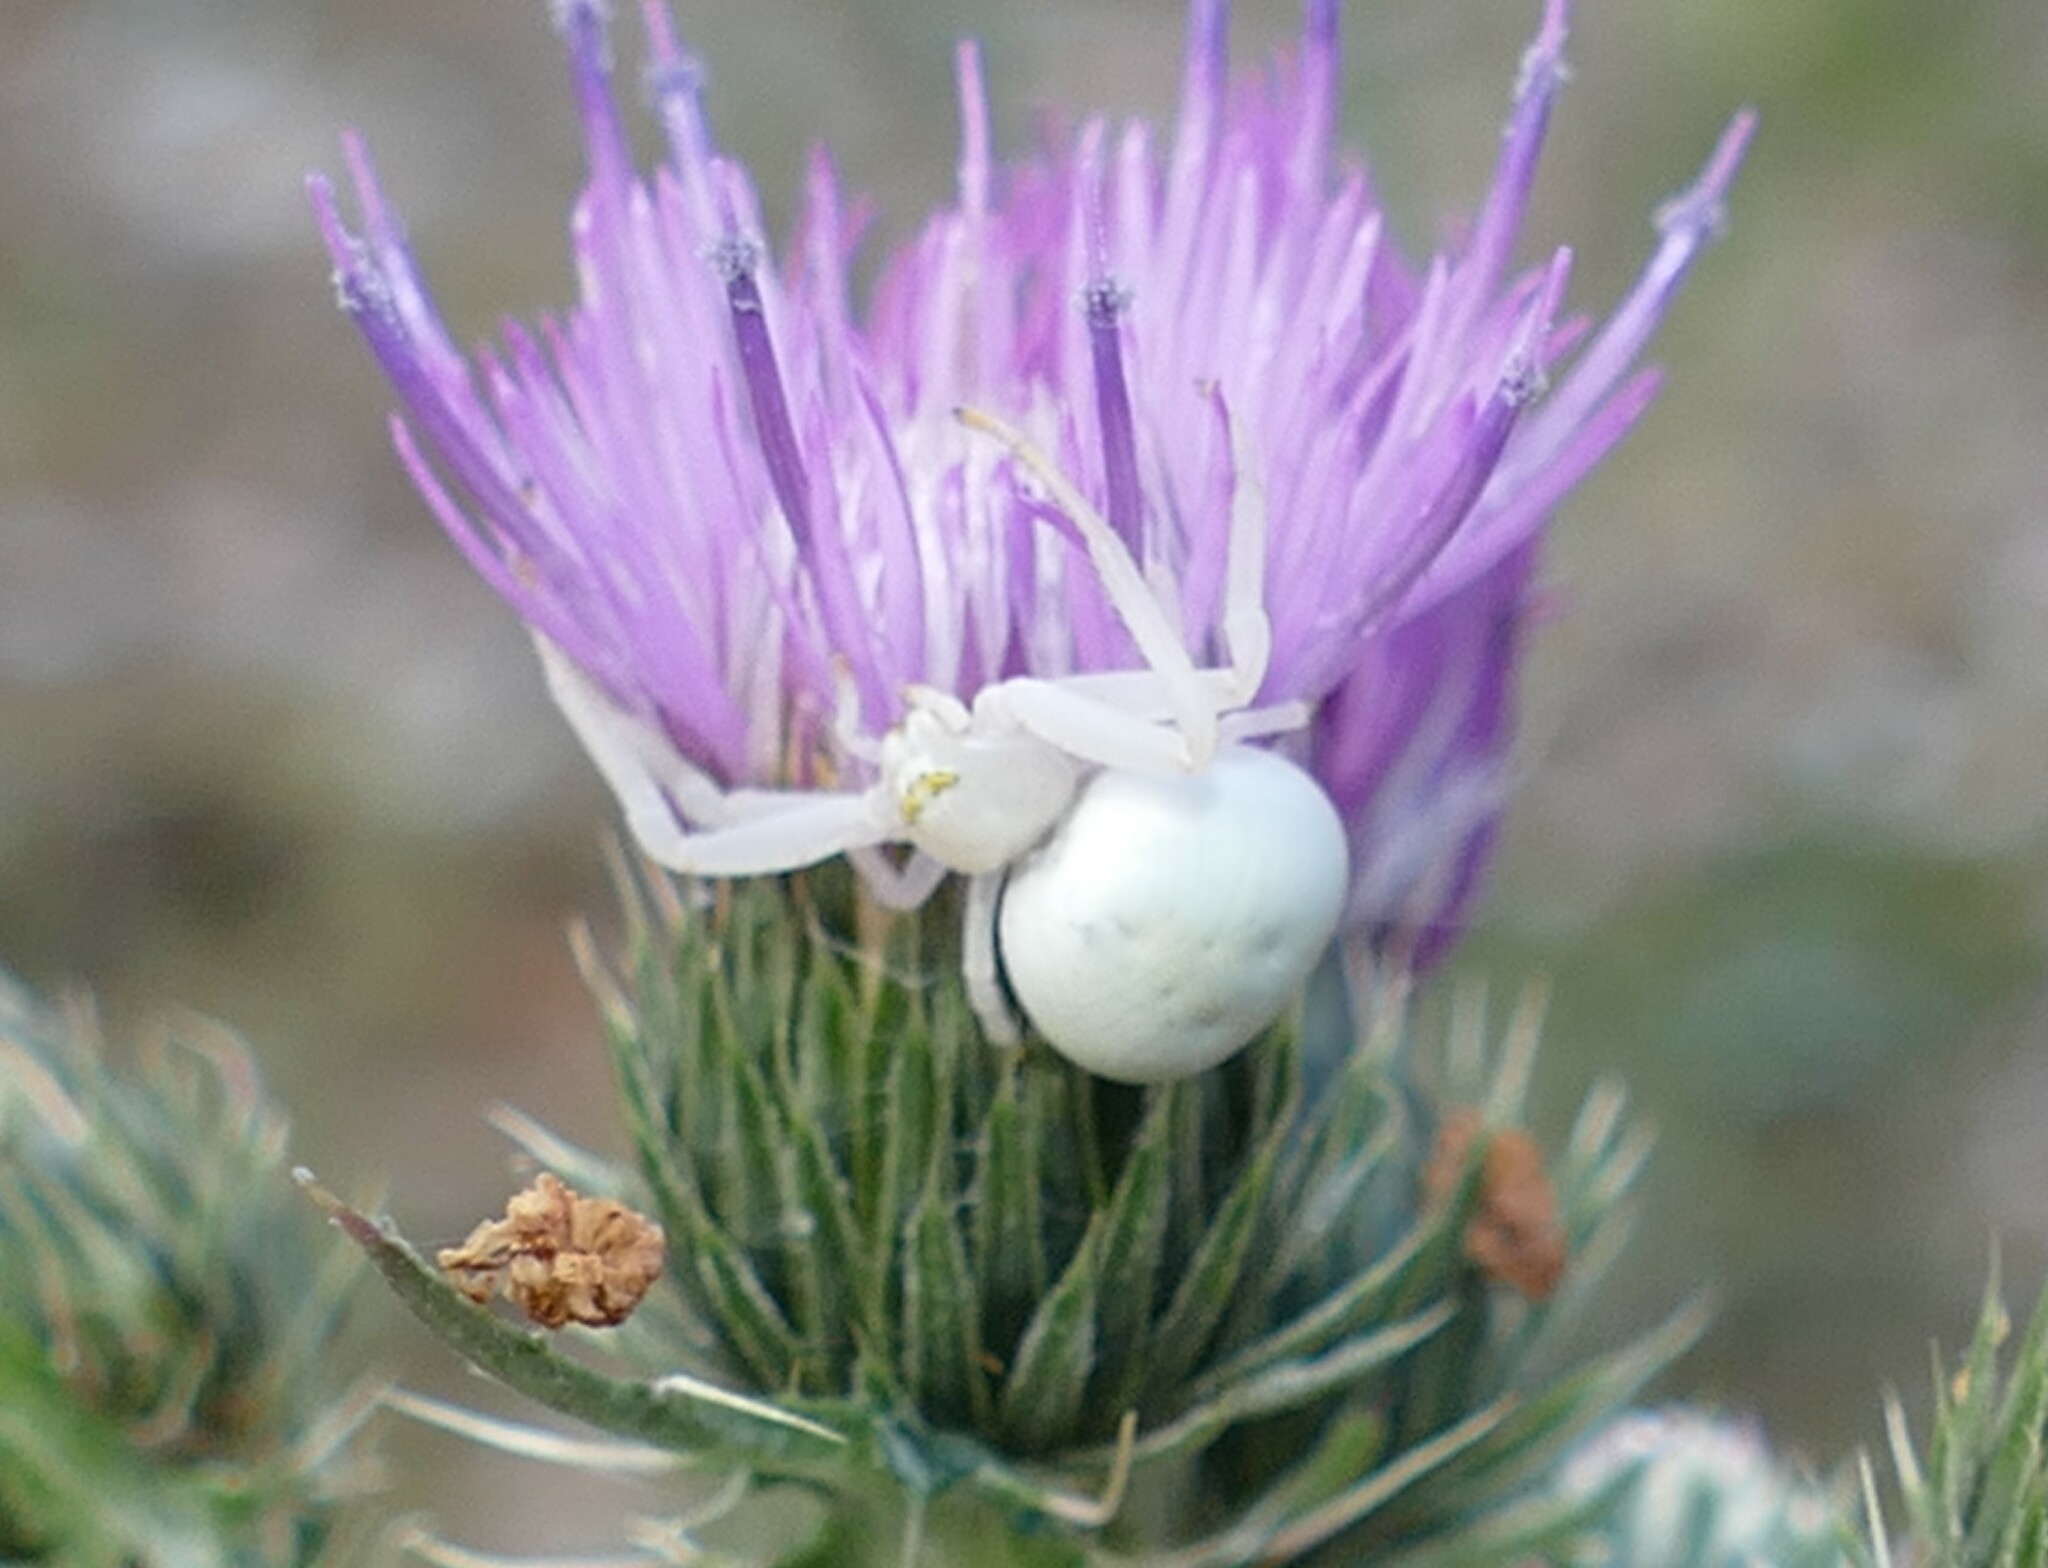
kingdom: Animalia
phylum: Arthropoda
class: Arachnida
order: Araneae
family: Thomisidae
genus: Thomisus
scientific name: Thomisus onustus
